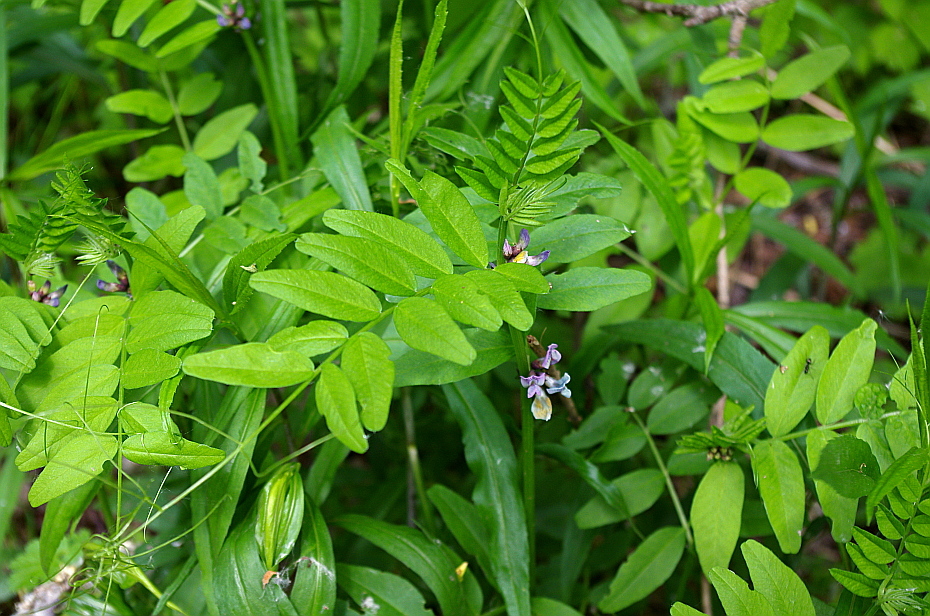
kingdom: Plantae
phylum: Tracheophyta
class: Magnoliopsida
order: Fabales
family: Fabaceae
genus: Vicia
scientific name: Vicia sepium
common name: Bush vetch
